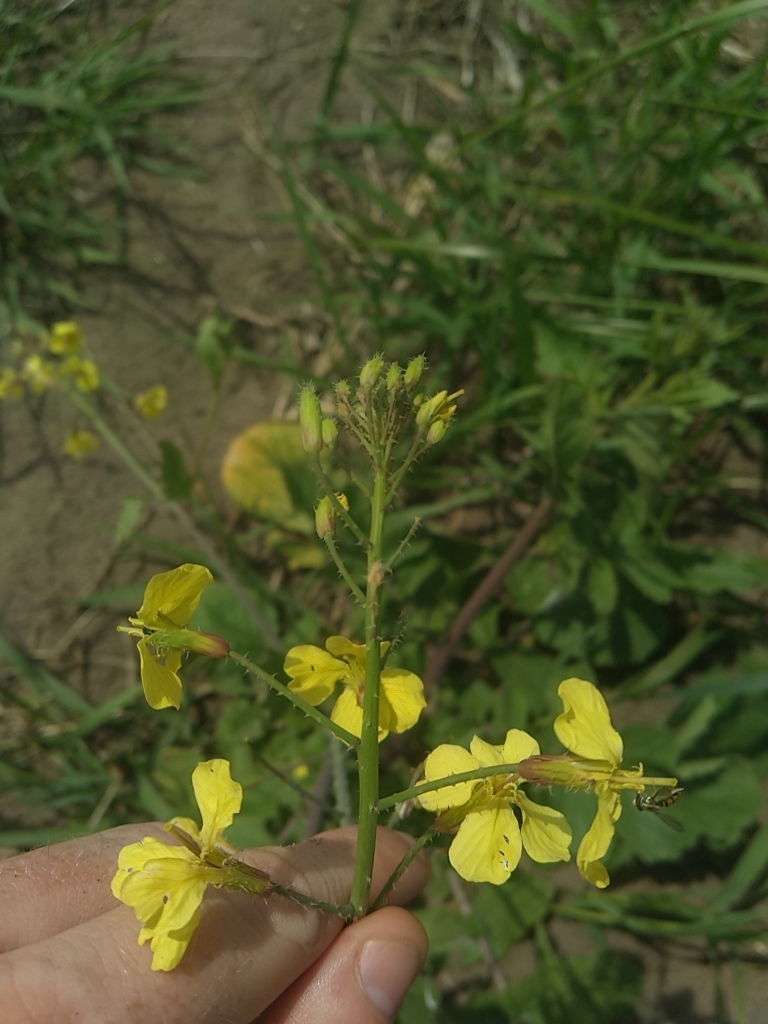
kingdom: Plantae
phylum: Tracheophyta
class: Magnoliopsida
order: Brassicales
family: Brassicaceae
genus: Raphanus
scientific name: Raphanus raphanistrum
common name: Wild radish
